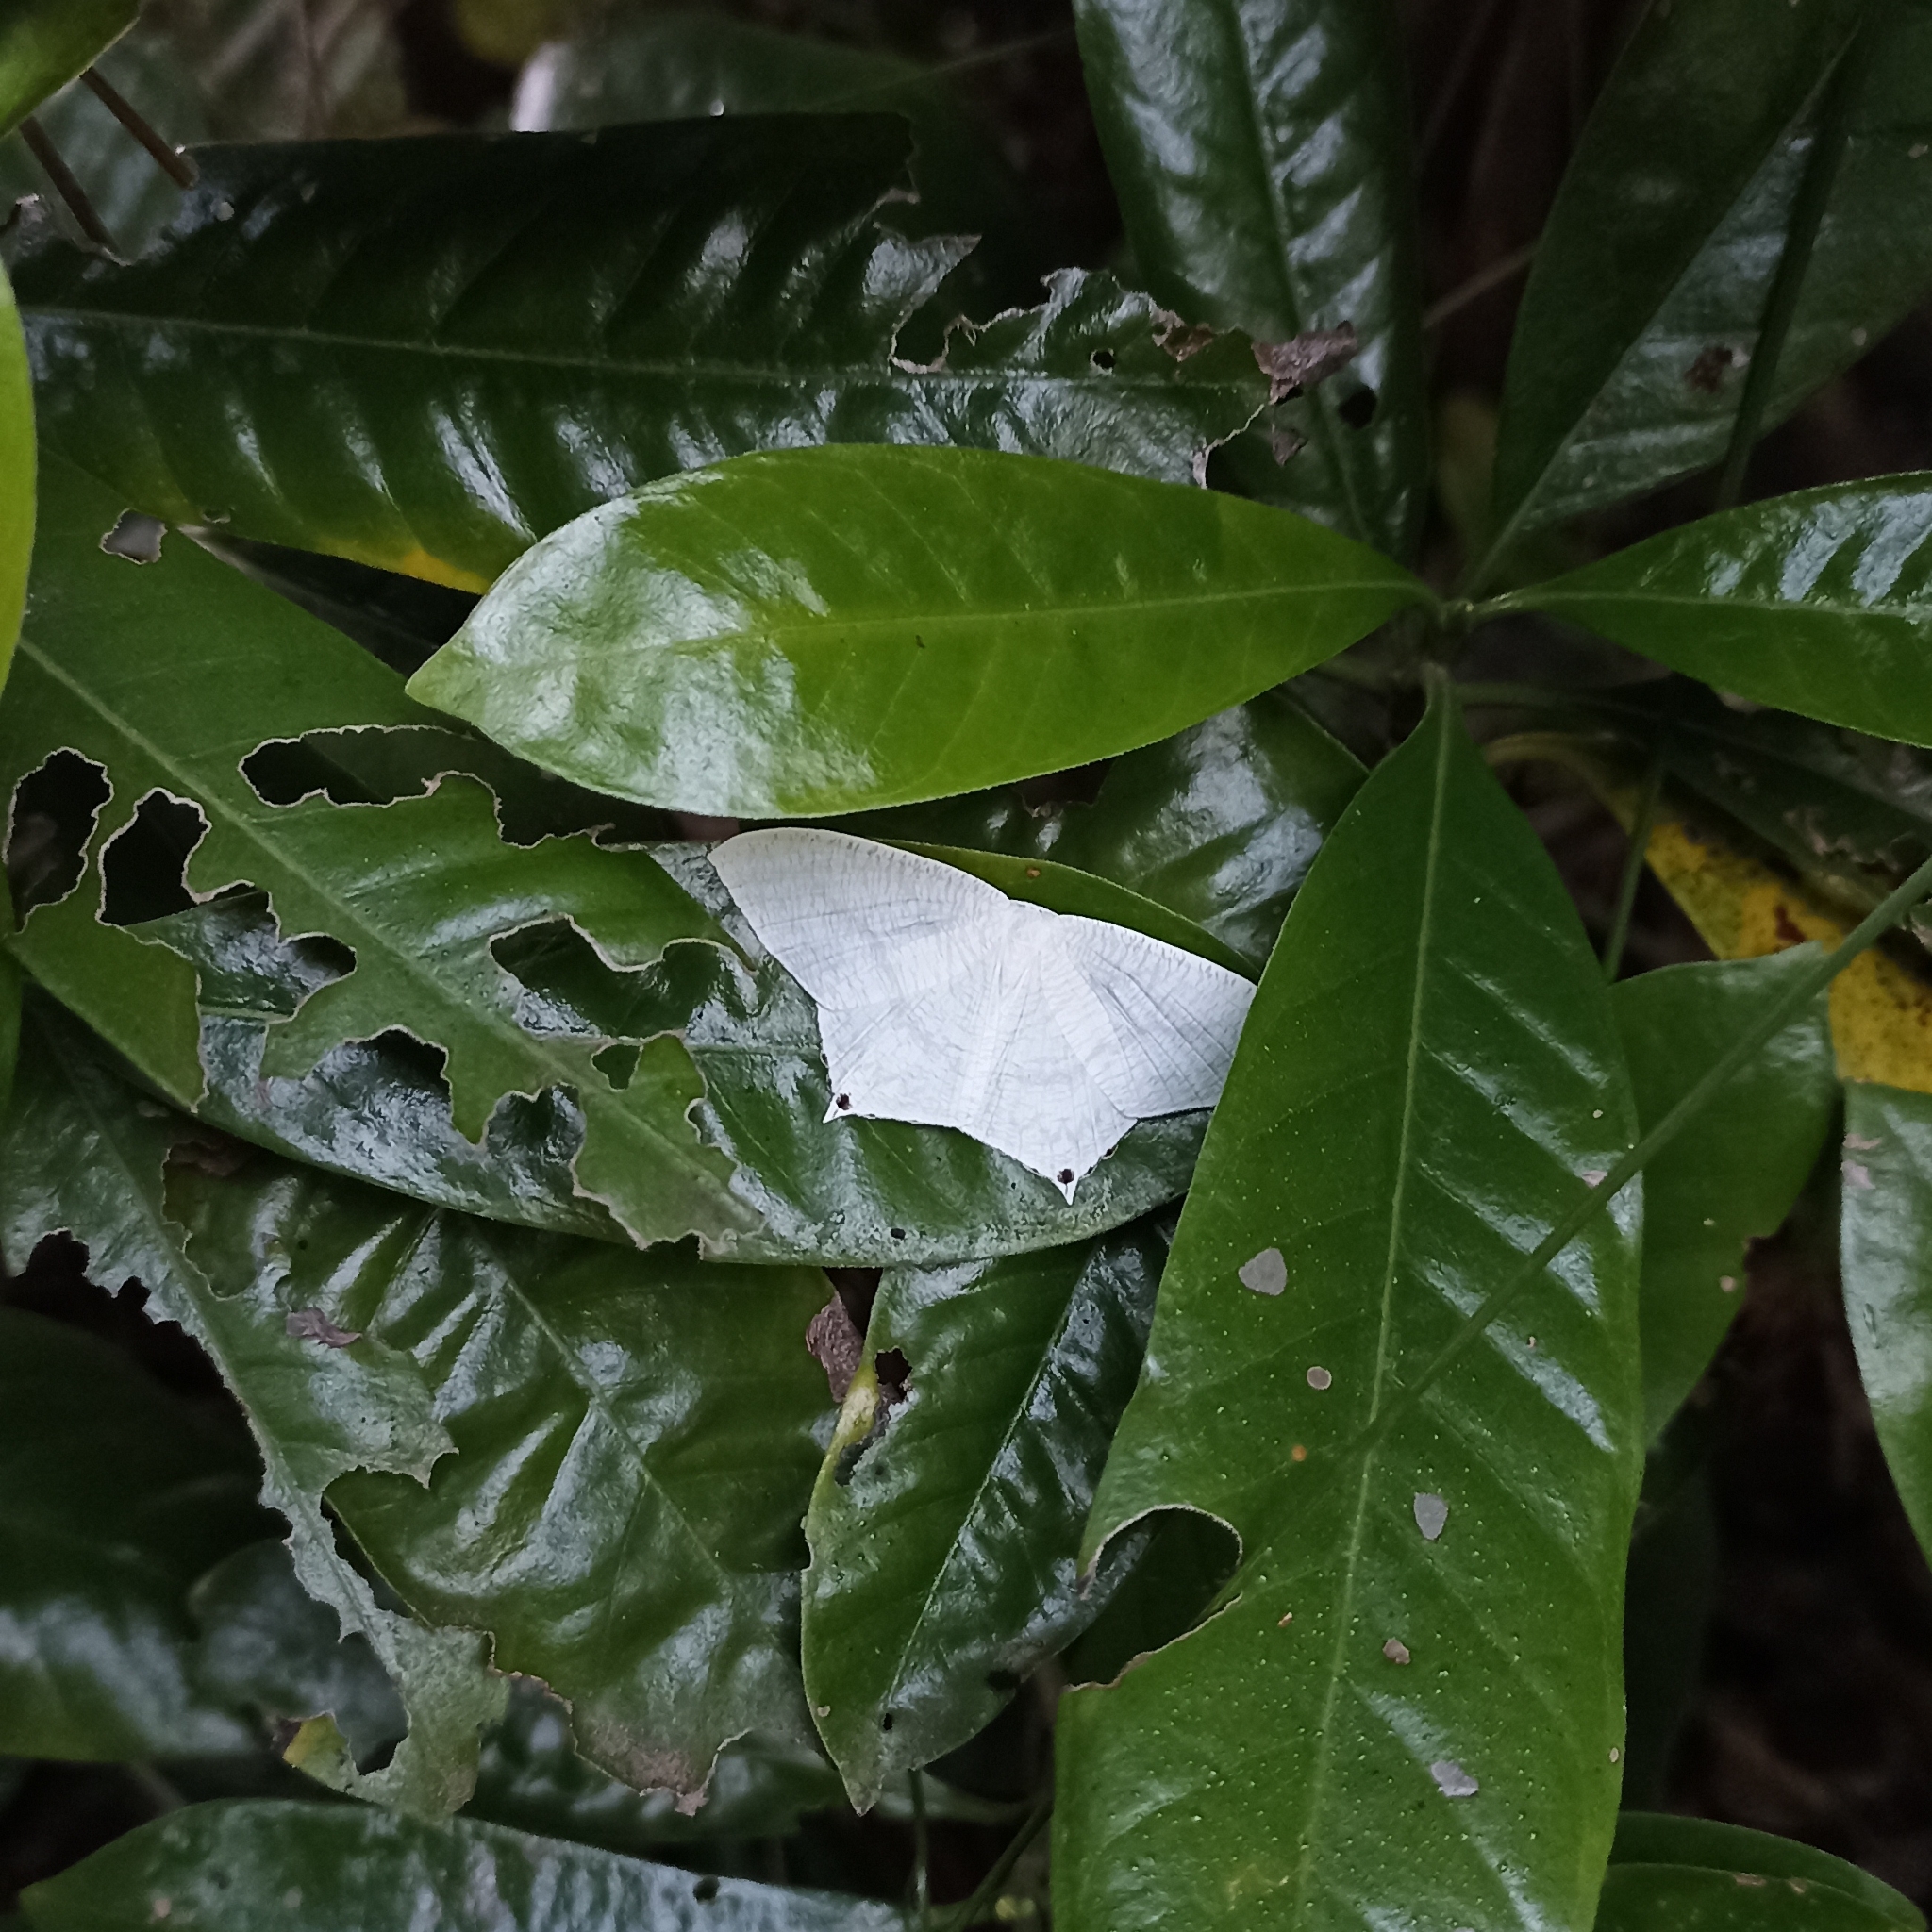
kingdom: Animalia
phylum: Arthropoda
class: Insecta
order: Lepidoptera
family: Uraniidae
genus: Micronia
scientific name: Micronia aculeata
